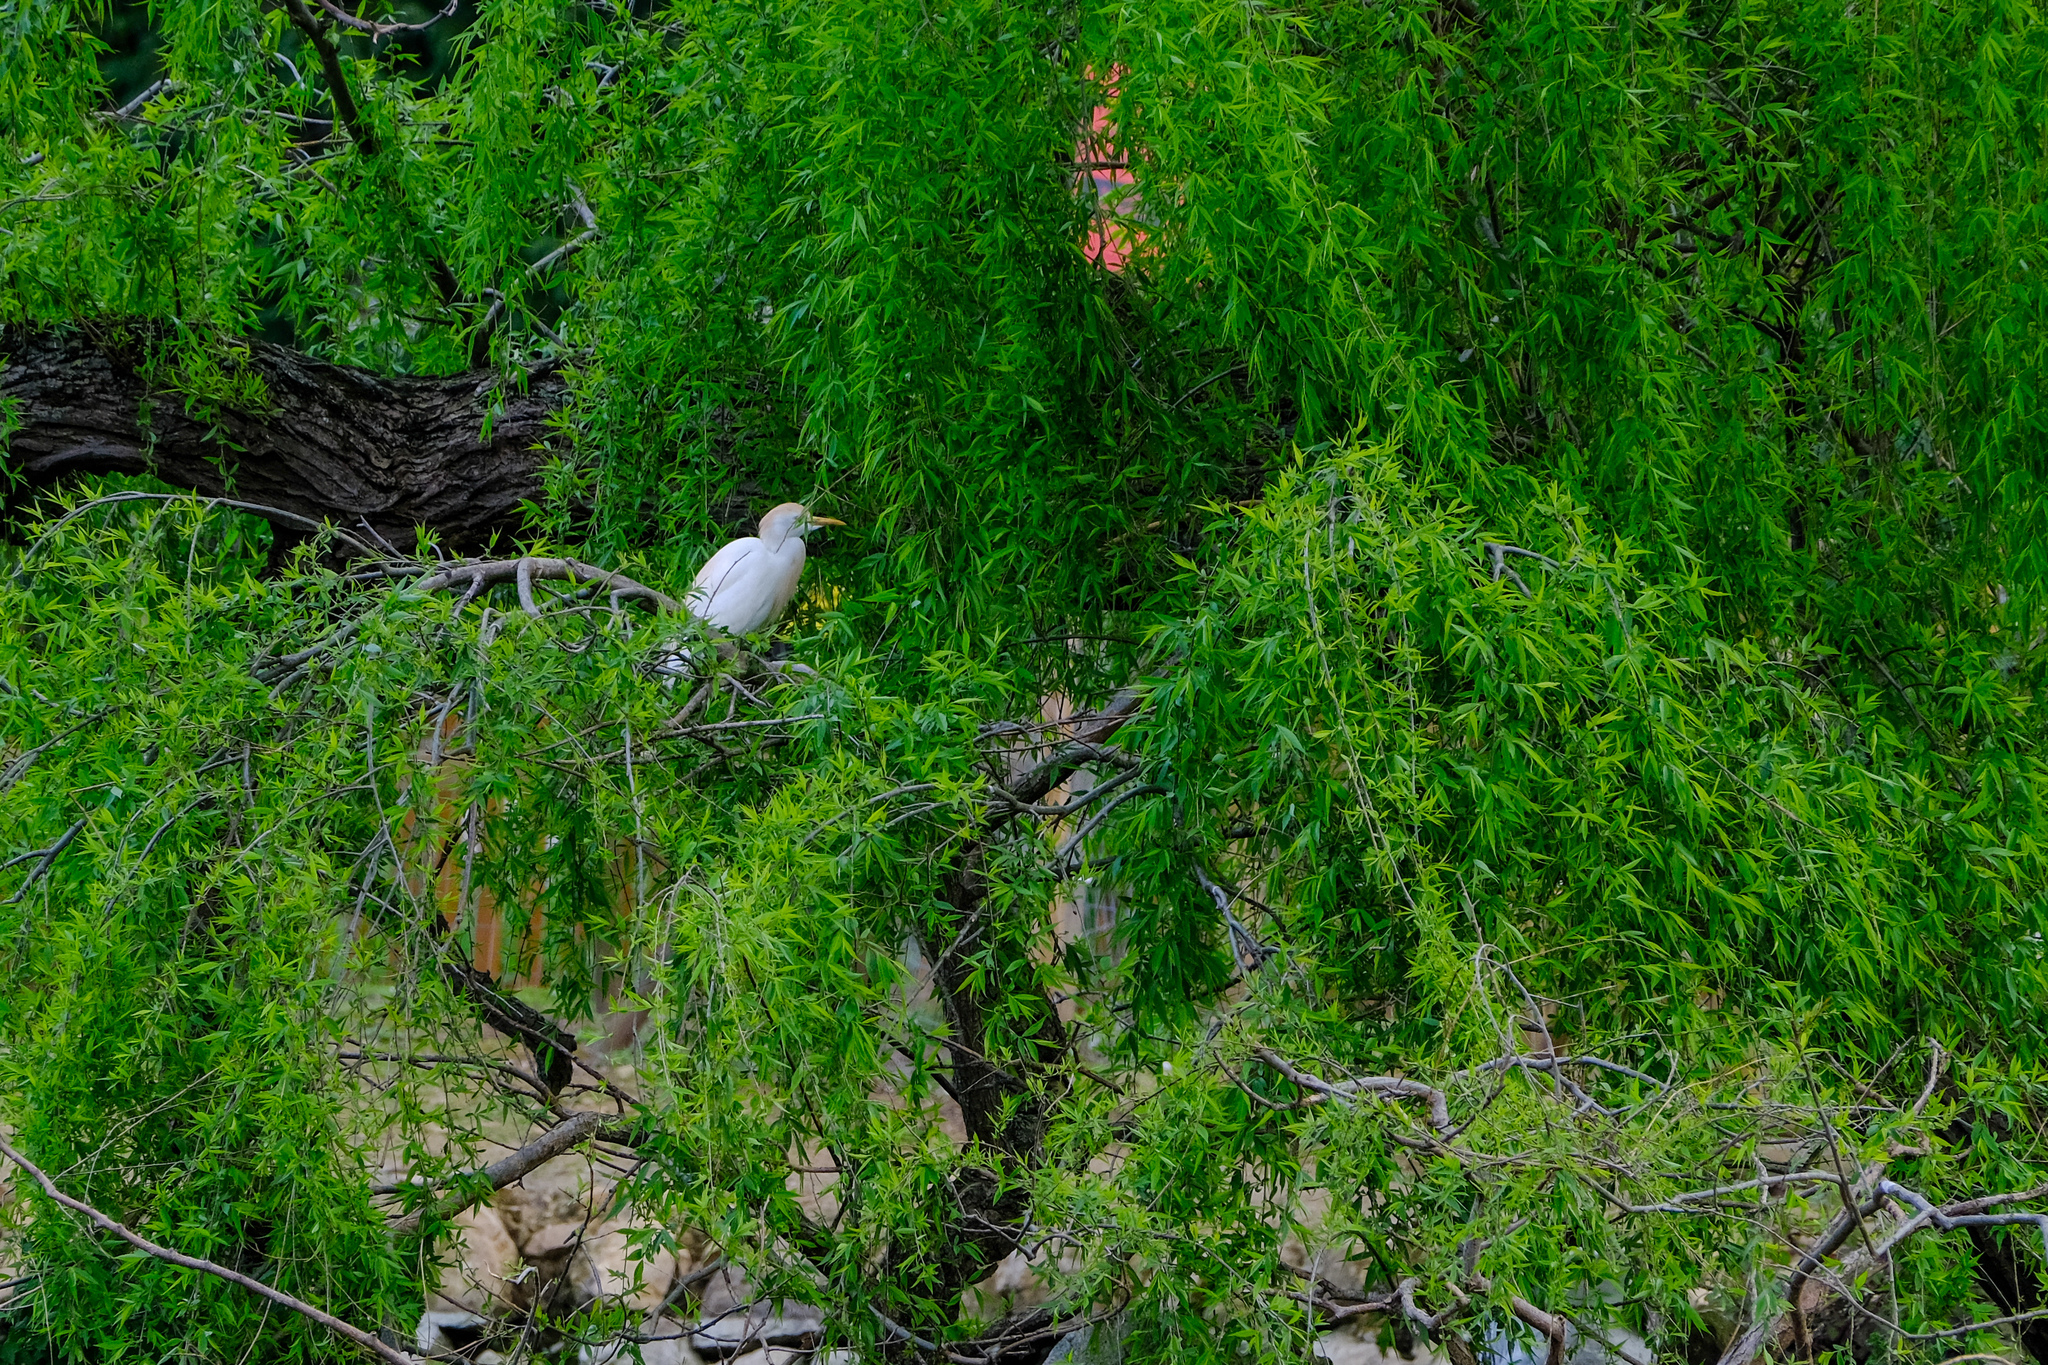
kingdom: Animalia
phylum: Chordata
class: Aves
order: Pelecaniformes
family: Ardeidae
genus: Bubulcus
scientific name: Bubulcus ibis
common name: Cattle egret
